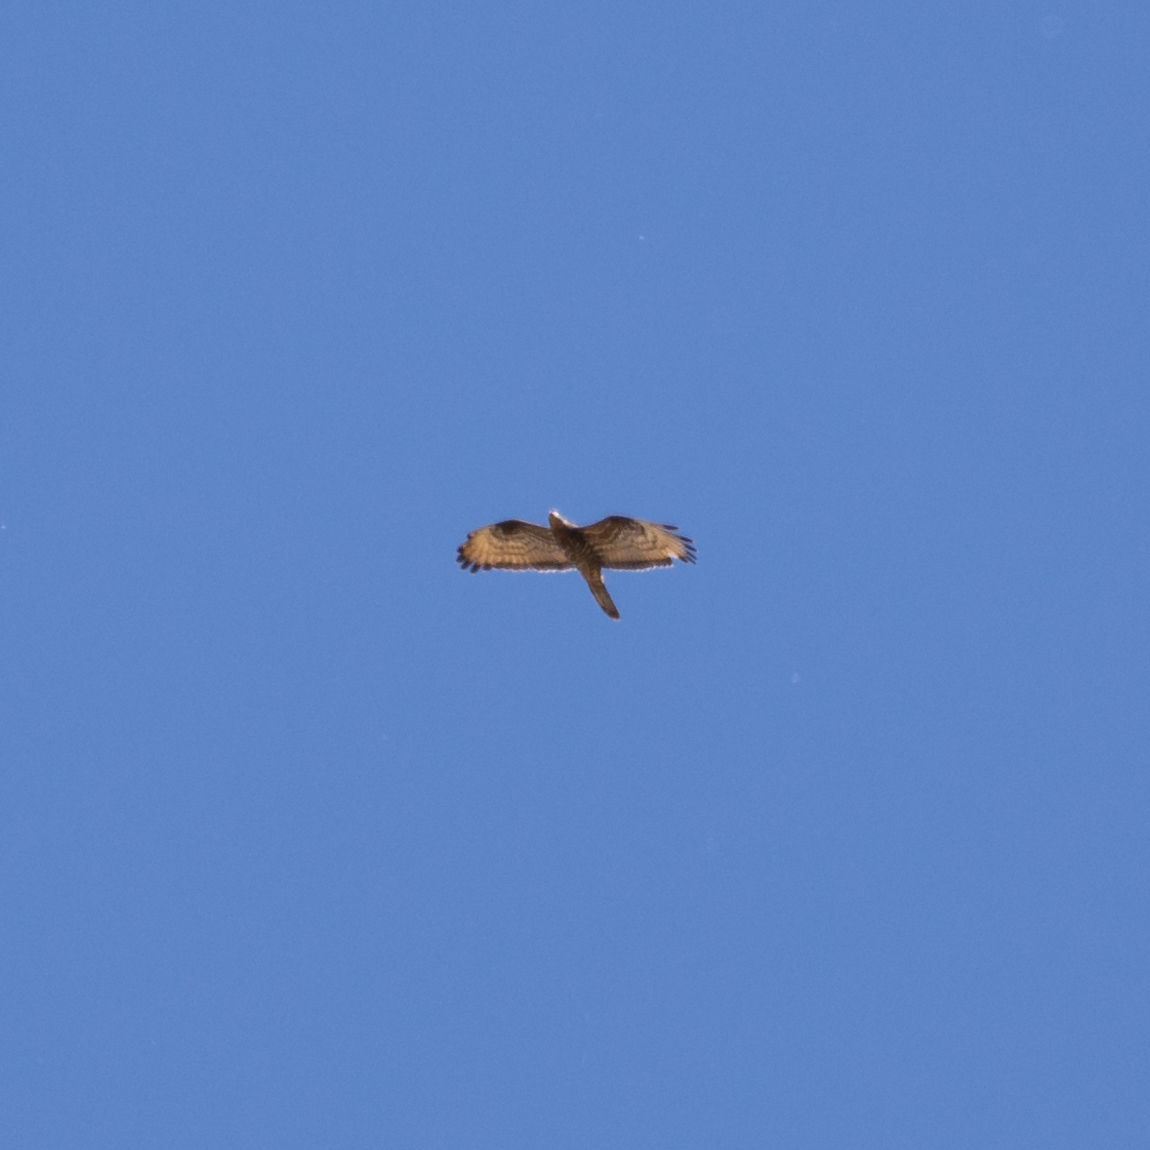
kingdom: Animalia
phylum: Chordata
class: Aves
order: Accipitriformes
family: Accipitridae
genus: Pernis
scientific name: Pernis apivorus
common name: European honey buzzard
